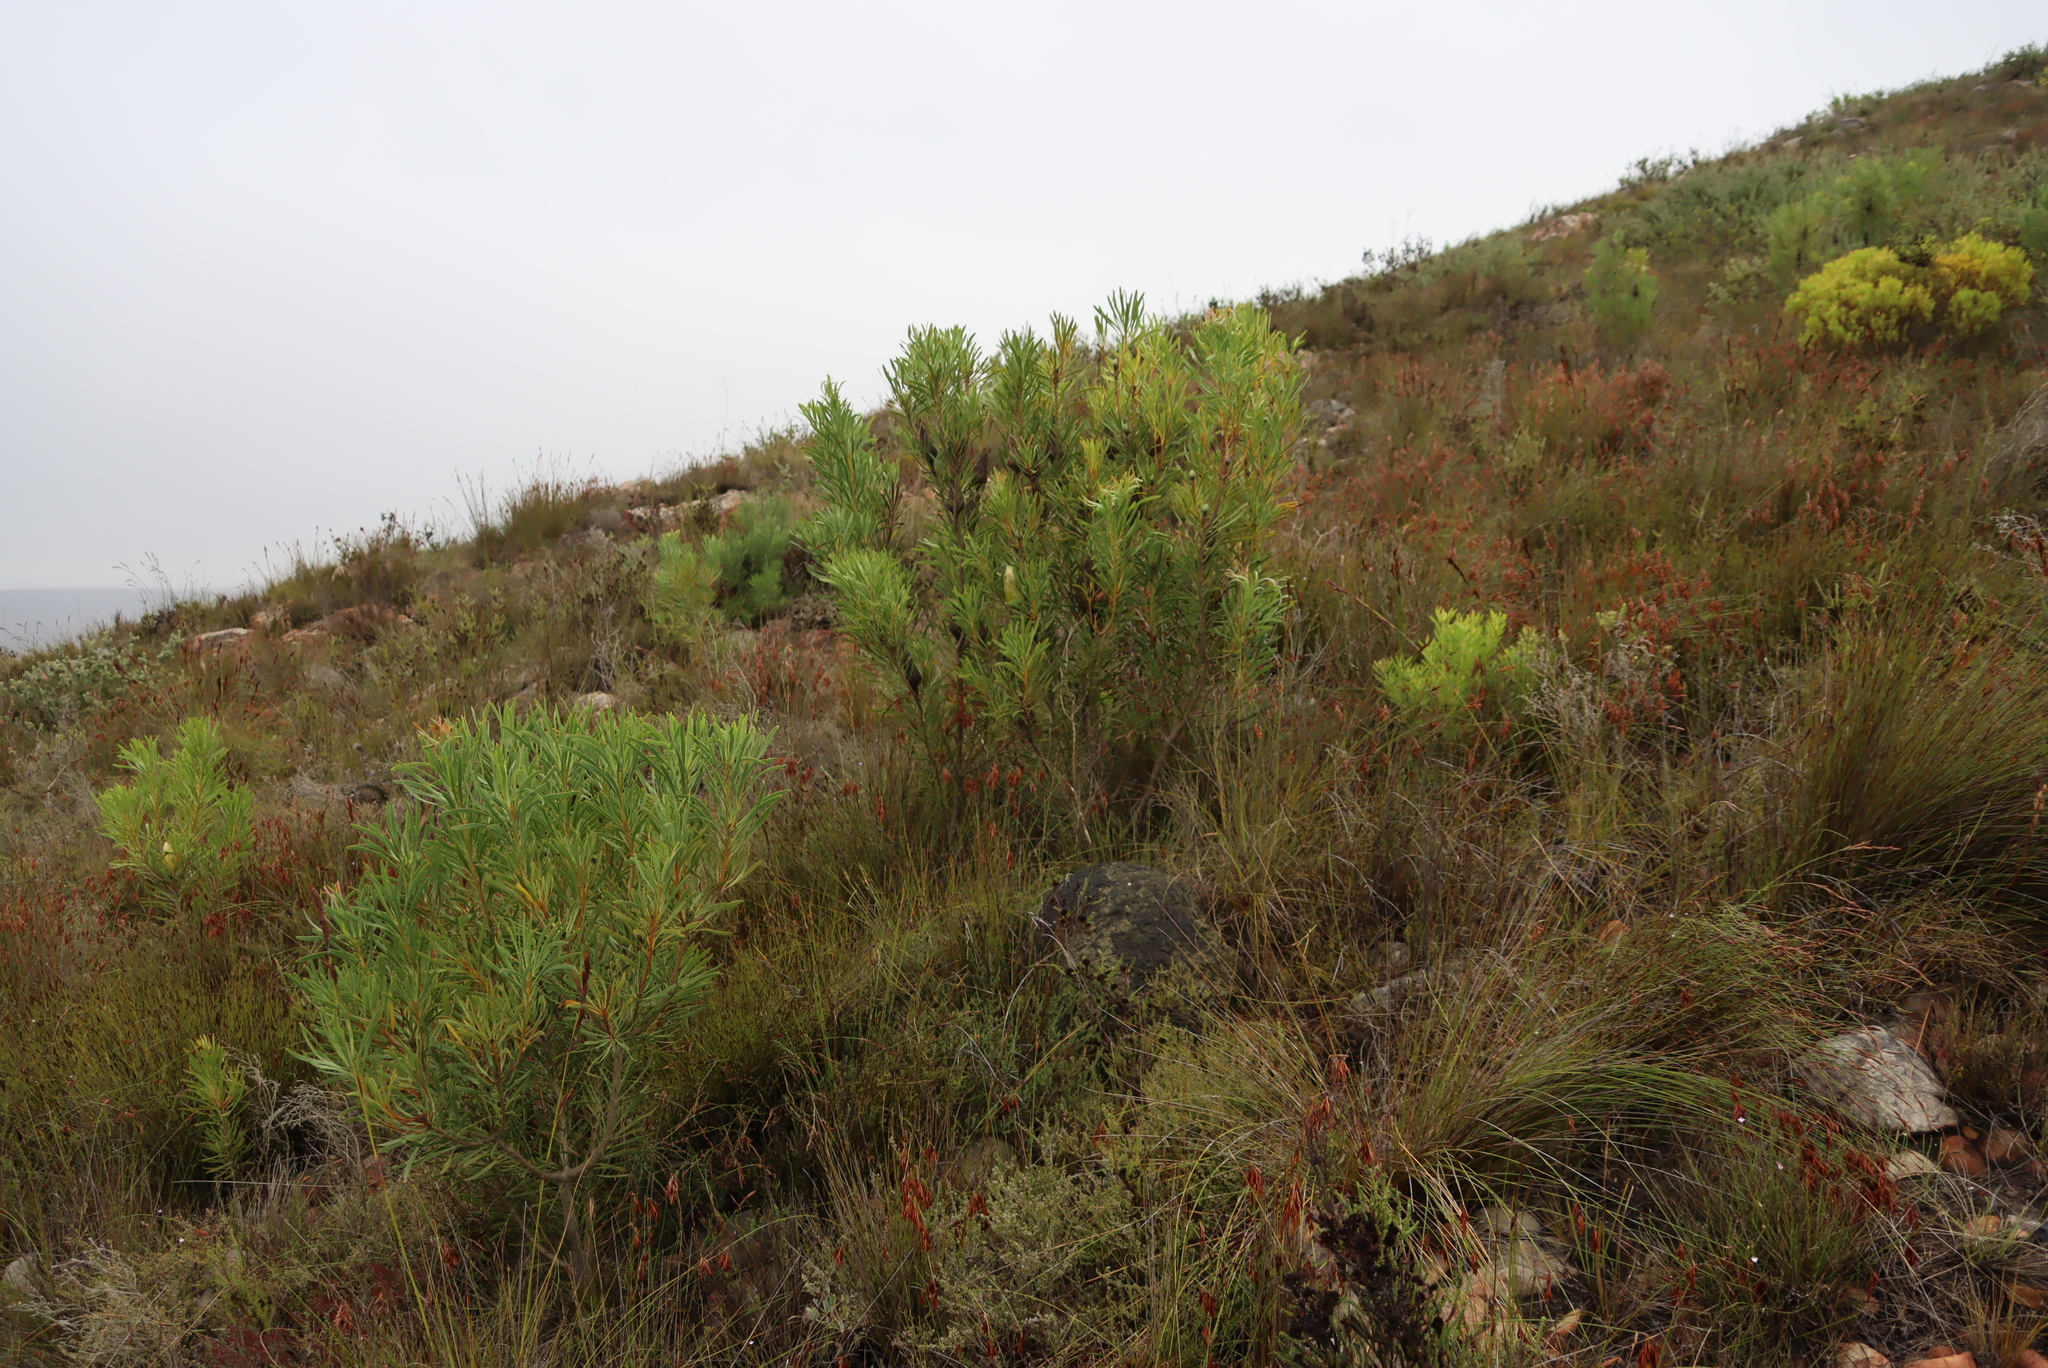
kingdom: Plantae
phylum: Tracheophyta
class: Magnoliopsida
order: Proteales
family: Proteaceae
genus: Protea
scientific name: Protea repens
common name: Sugarbush
